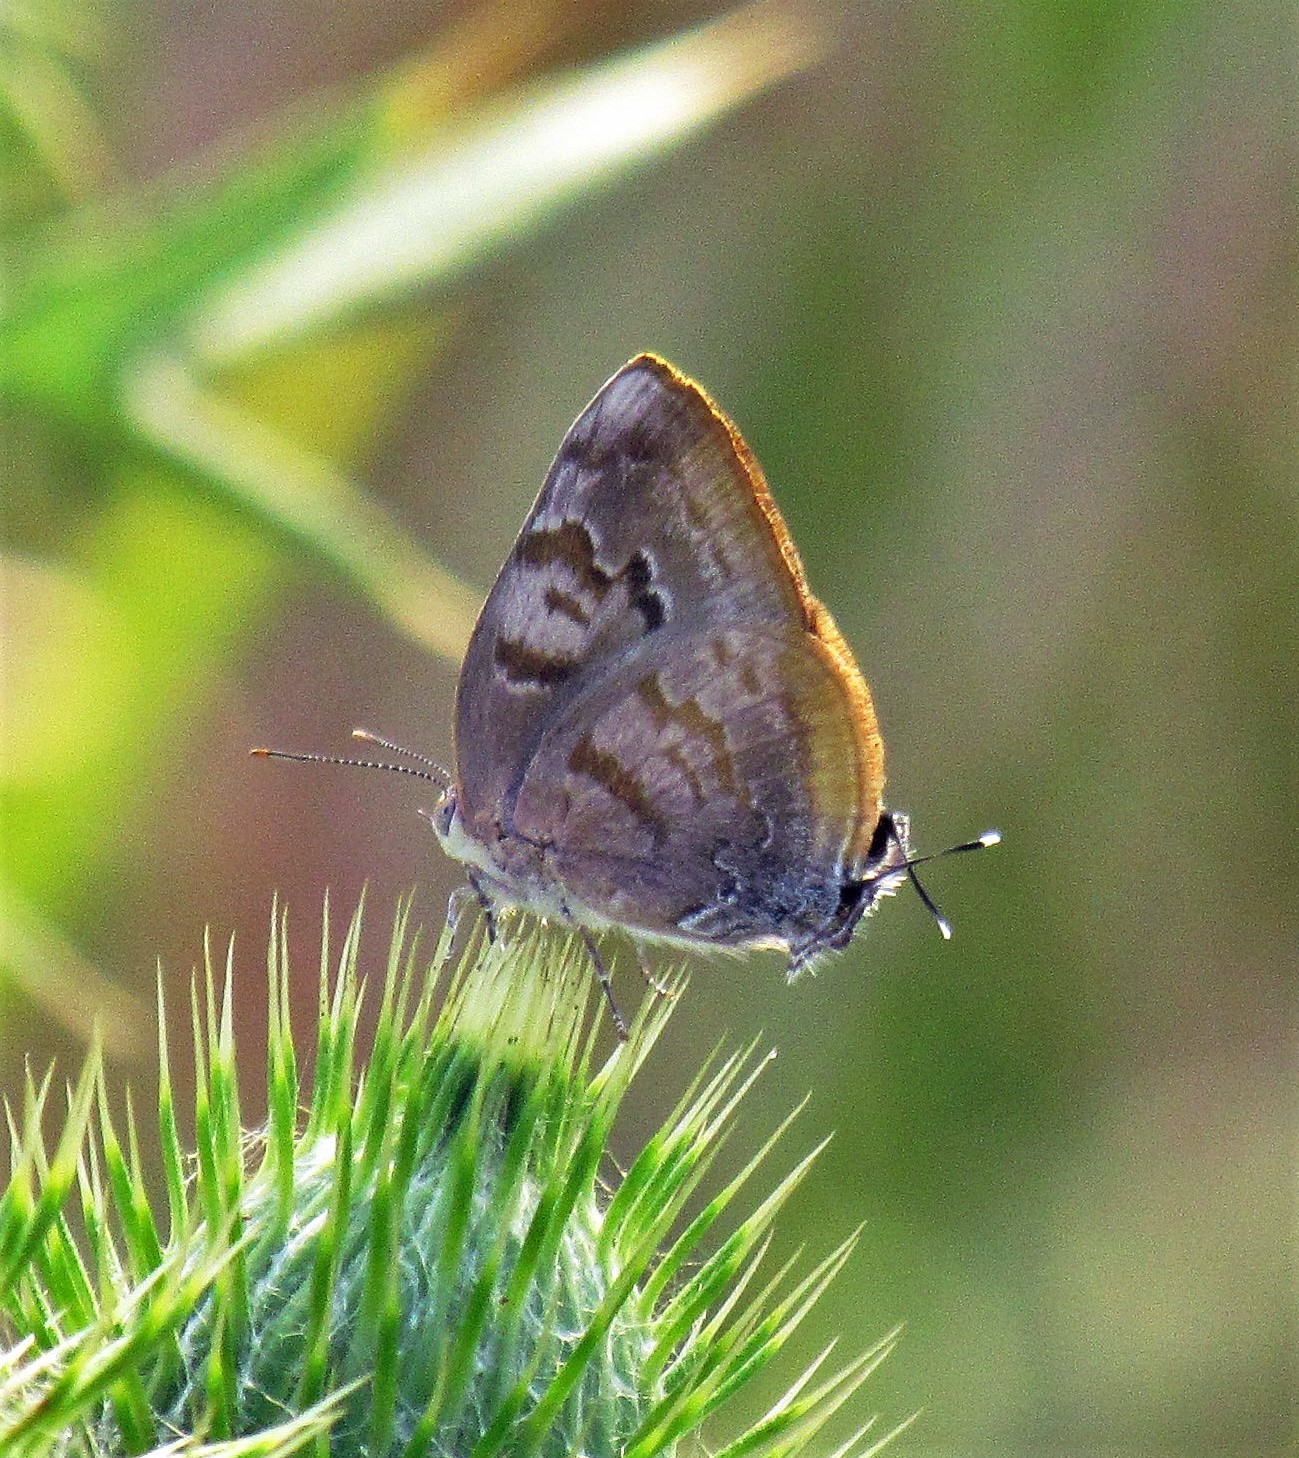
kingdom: Animalia
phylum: Arthropoda
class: Insecta
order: Lepidoptera
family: Lycaenidae
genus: Rekoa
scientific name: Rekoa palegon
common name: Gold-bordered hairstreak
